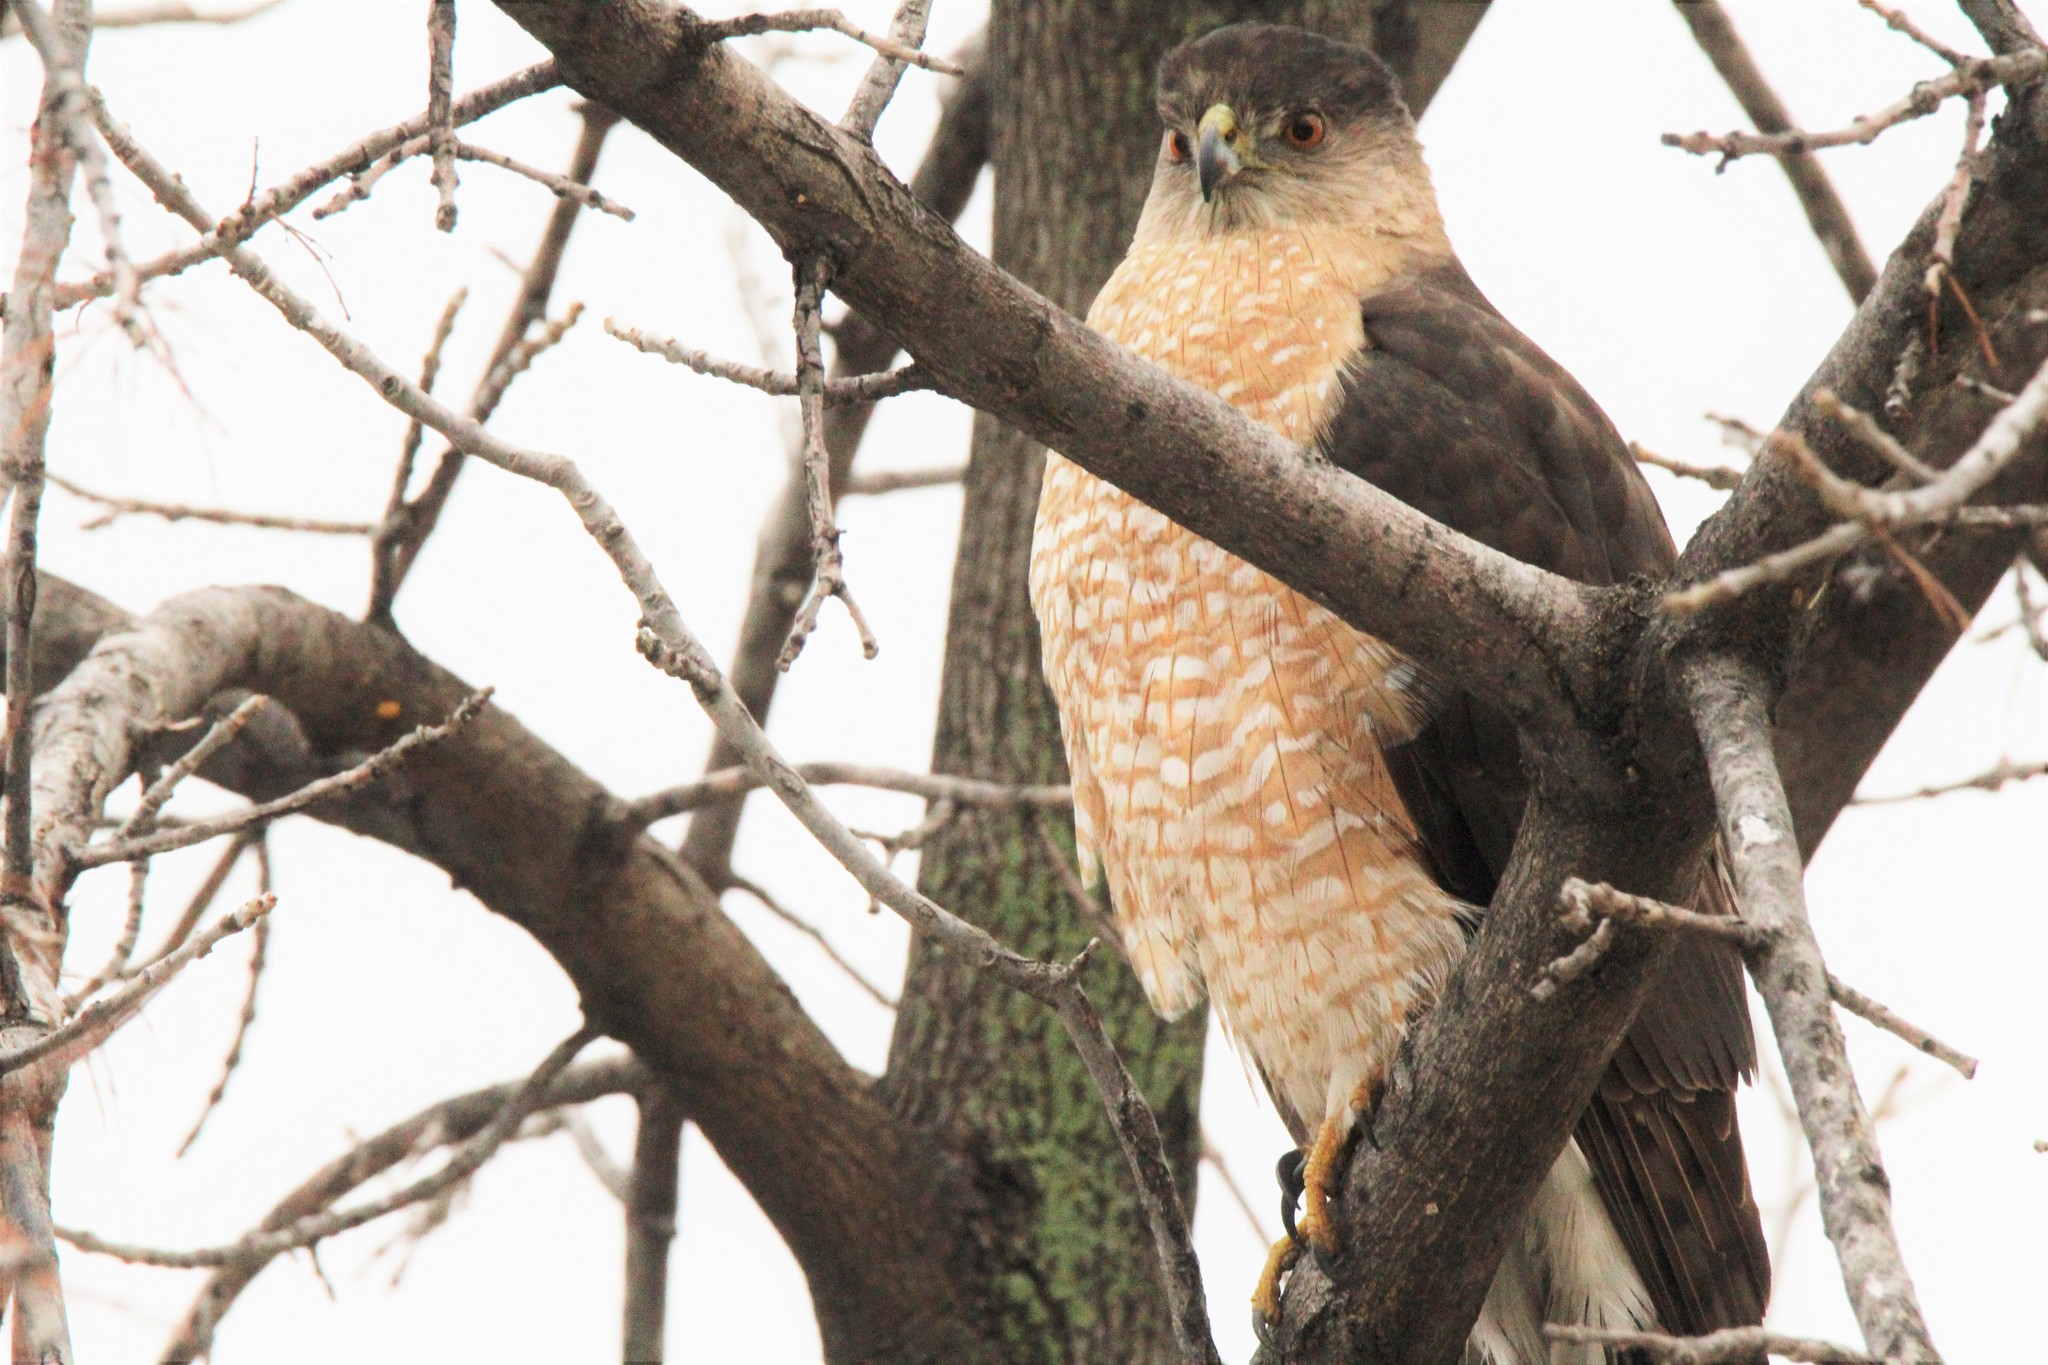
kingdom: Animalia
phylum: Chordata
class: Aves
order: Accipitriformes
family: Accipitridae
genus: Accipiter
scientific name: Accipiter cooperii
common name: Cooper's hawk
